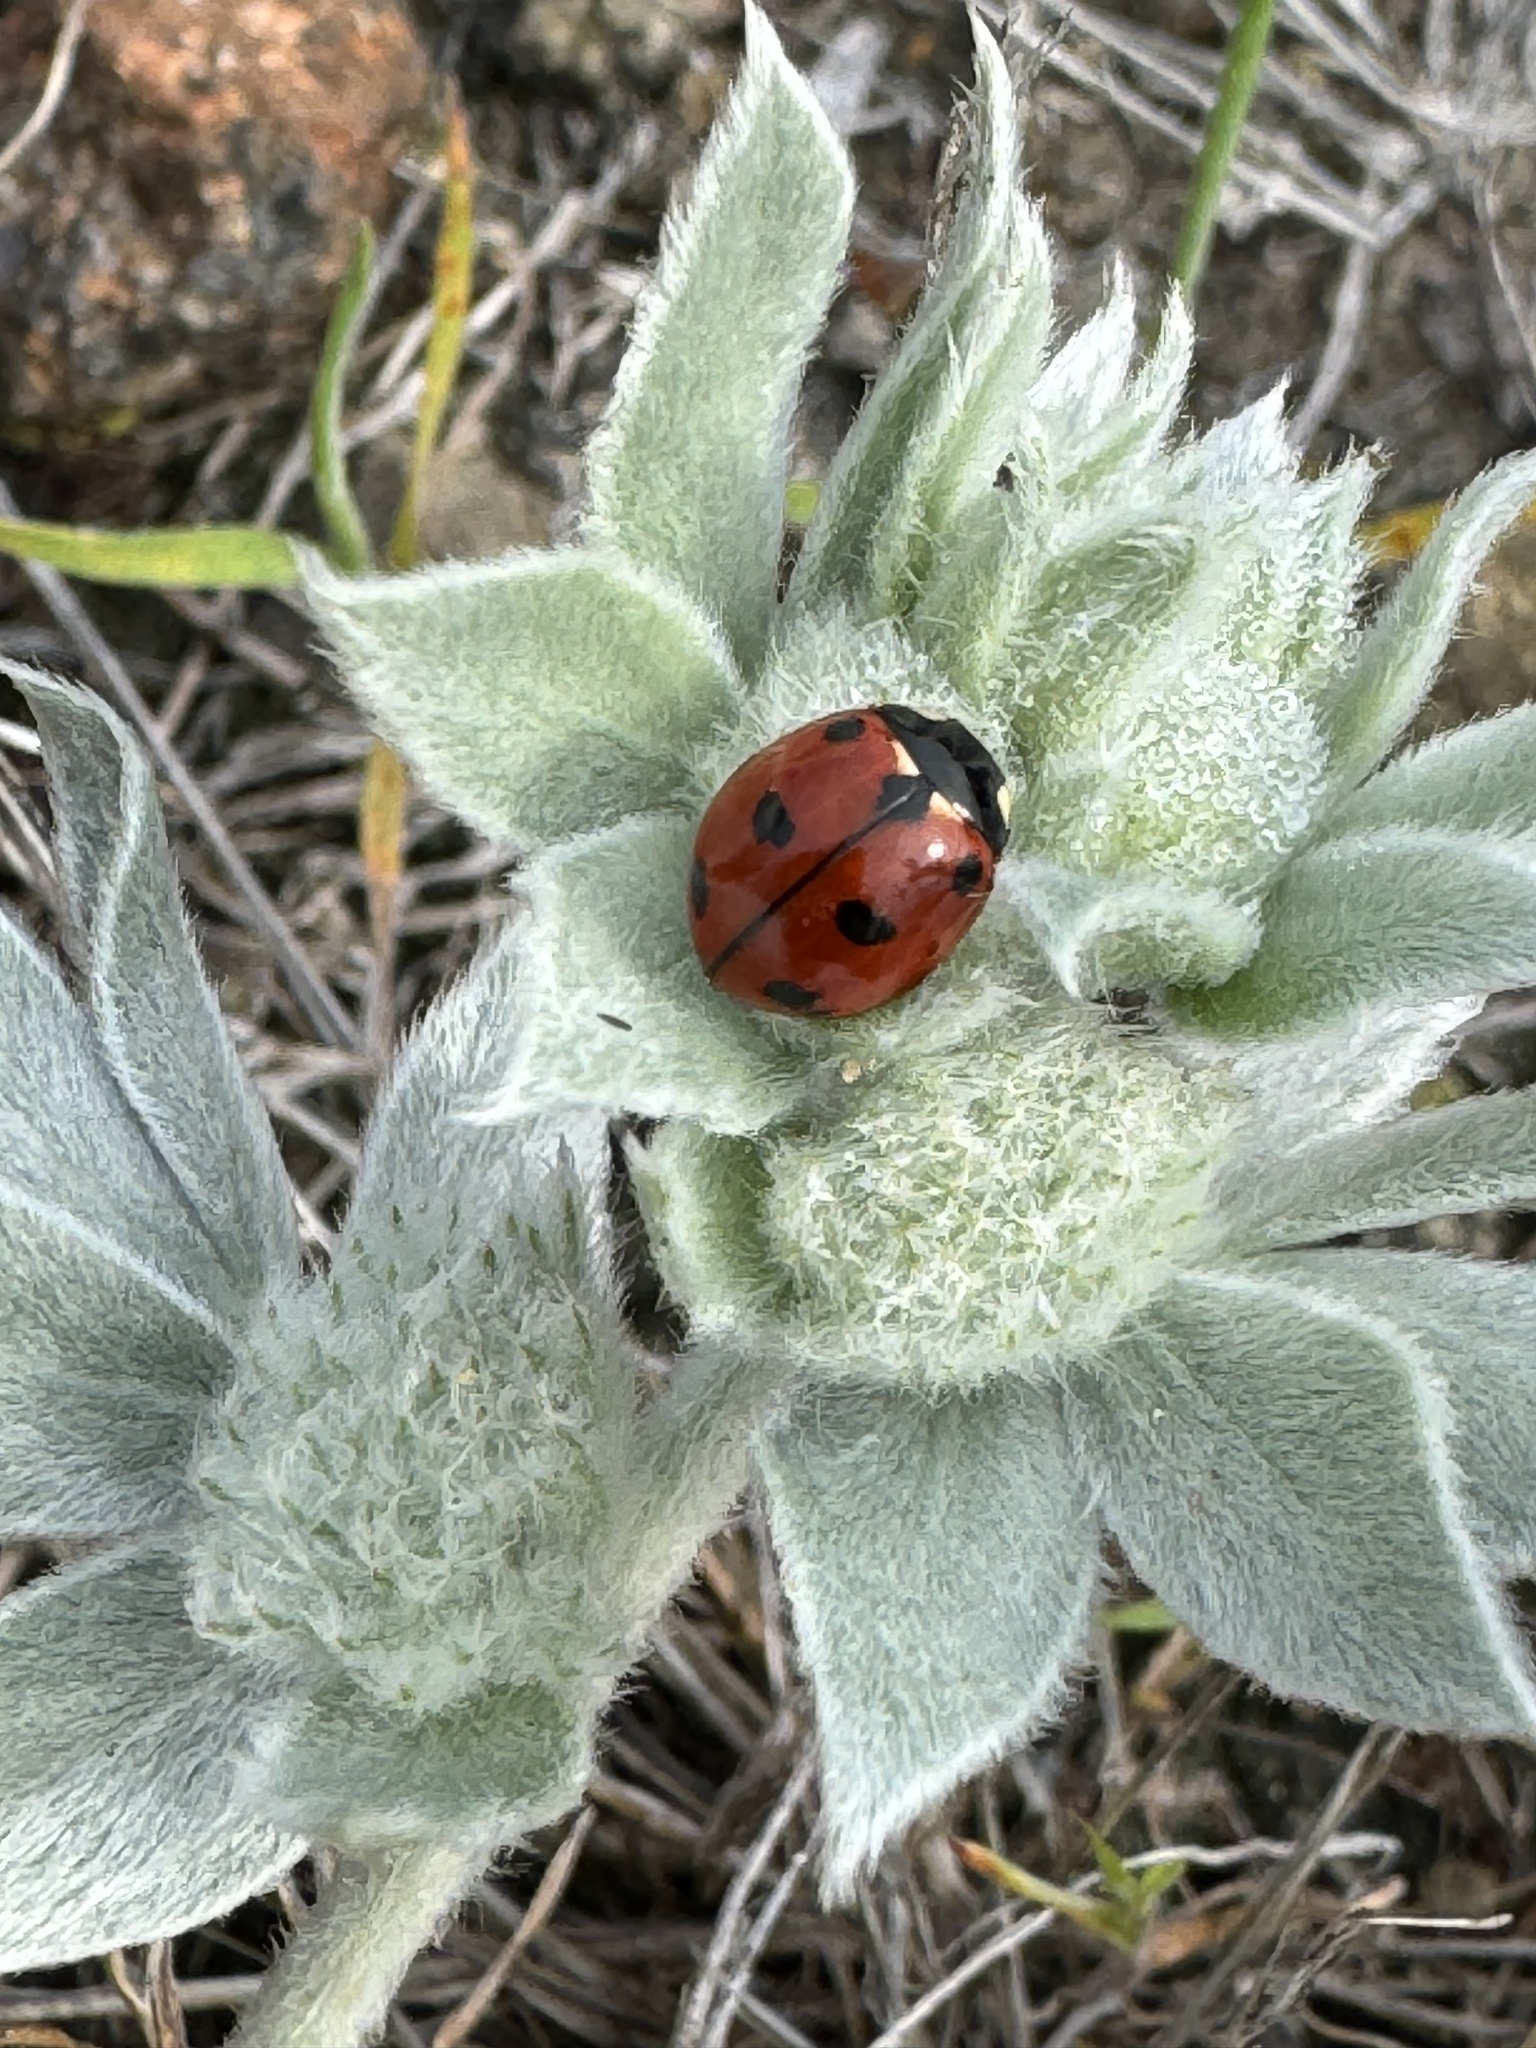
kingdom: Animalia
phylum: Arthropoda
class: Insecta
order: Coleoptera
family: Coccinellidae
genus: Coccinella
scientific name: Coccinella californica
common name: Lady beetle
